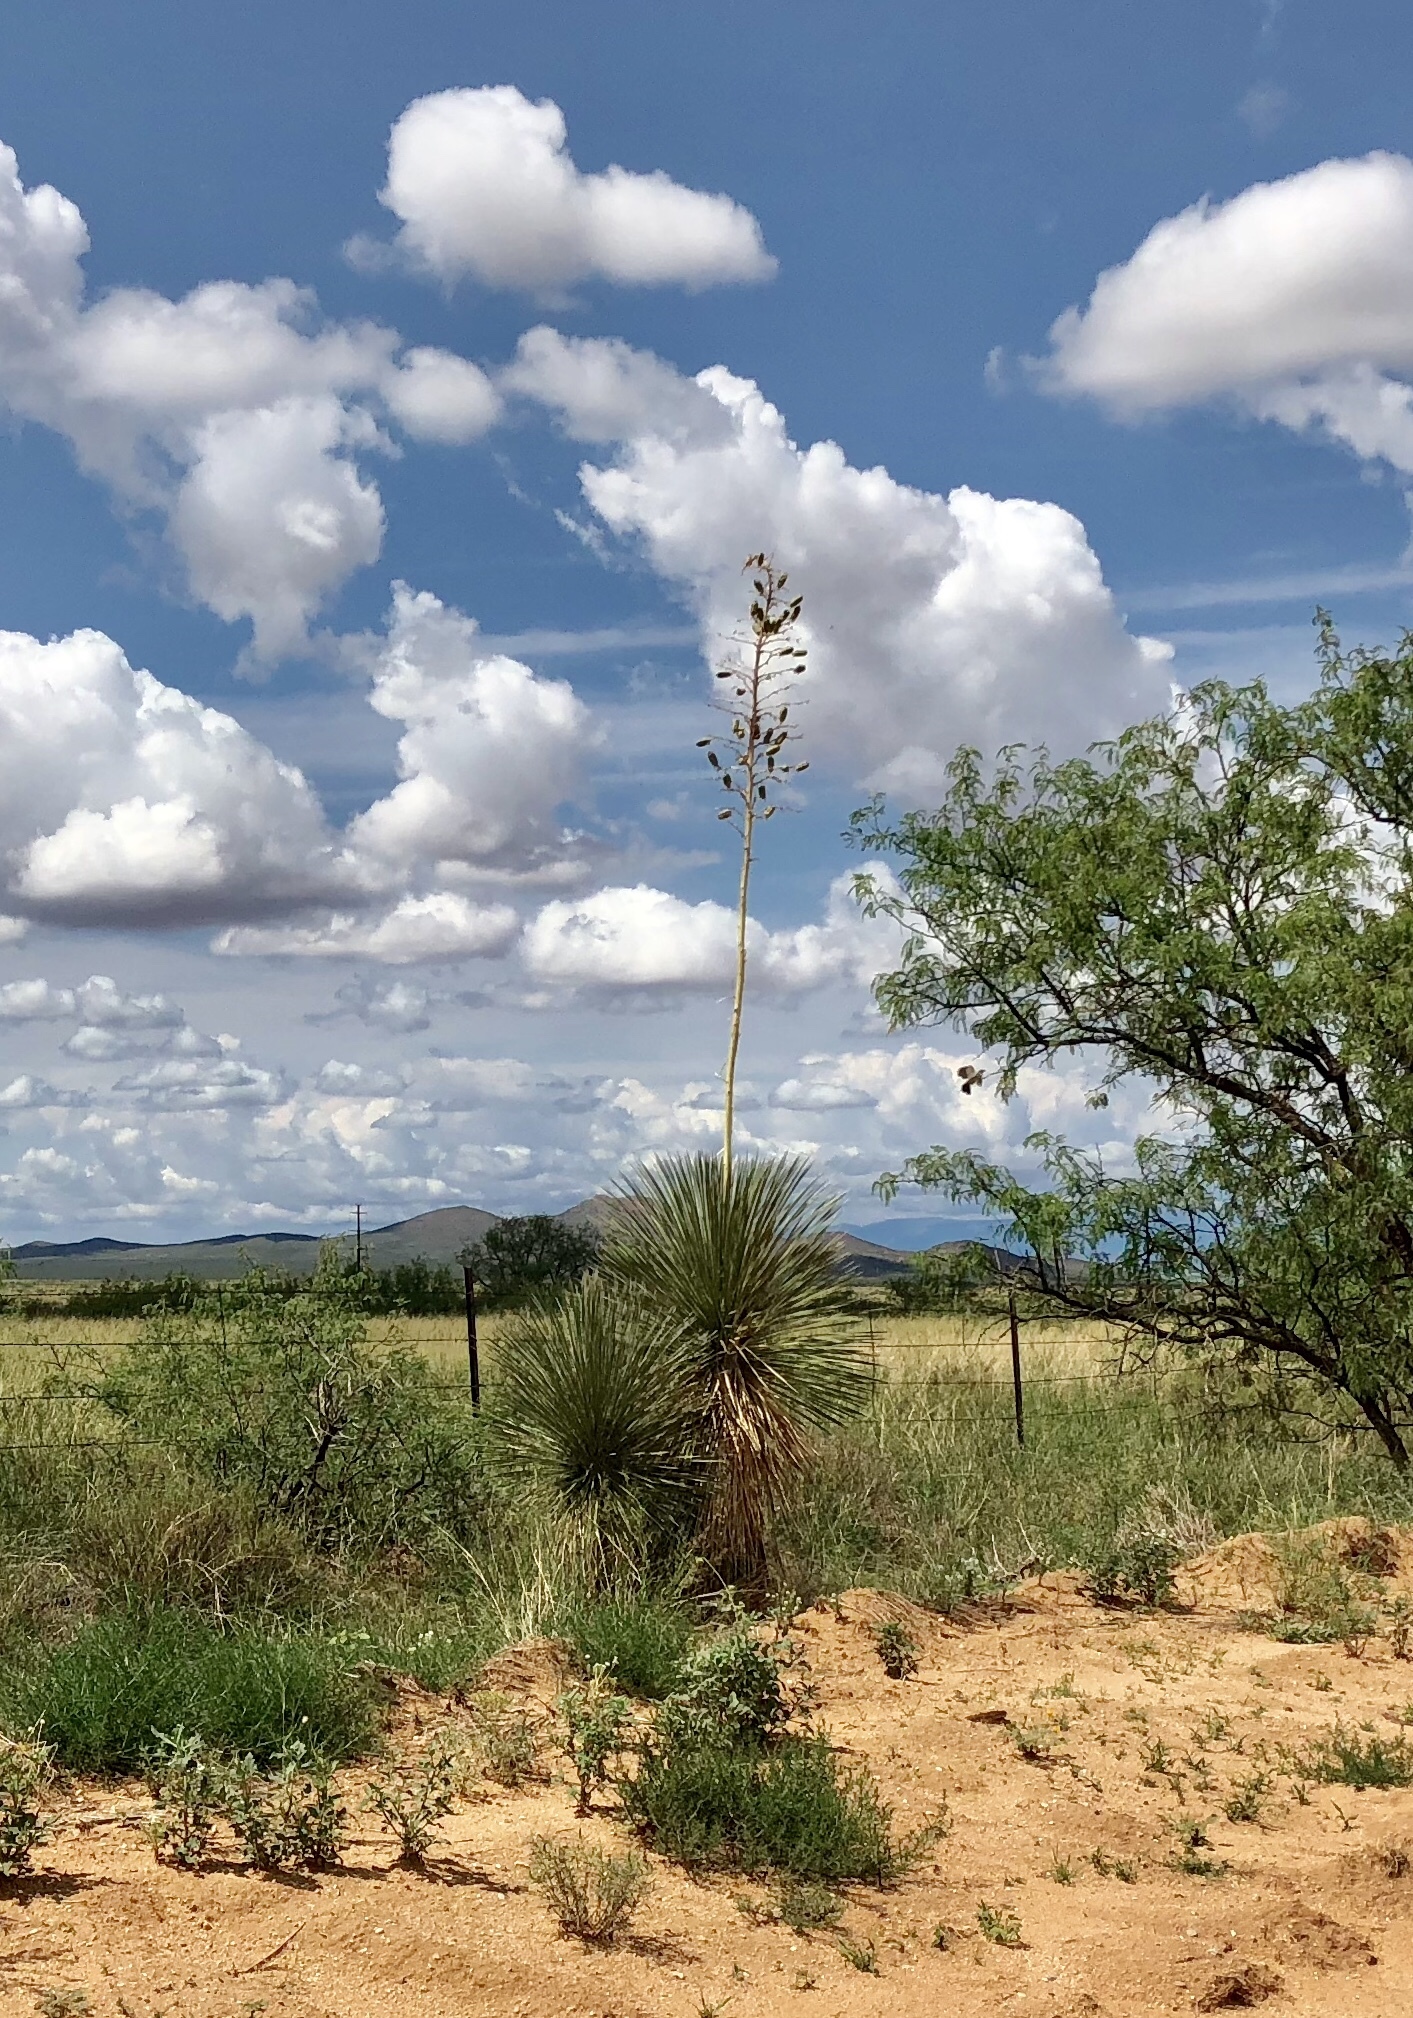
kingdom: Plantae
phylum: Tracheophyta
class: Liliopsida
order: Asparagales
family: Asparagaceae
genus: Yucca
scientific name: Yucca elata
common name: Palmella
